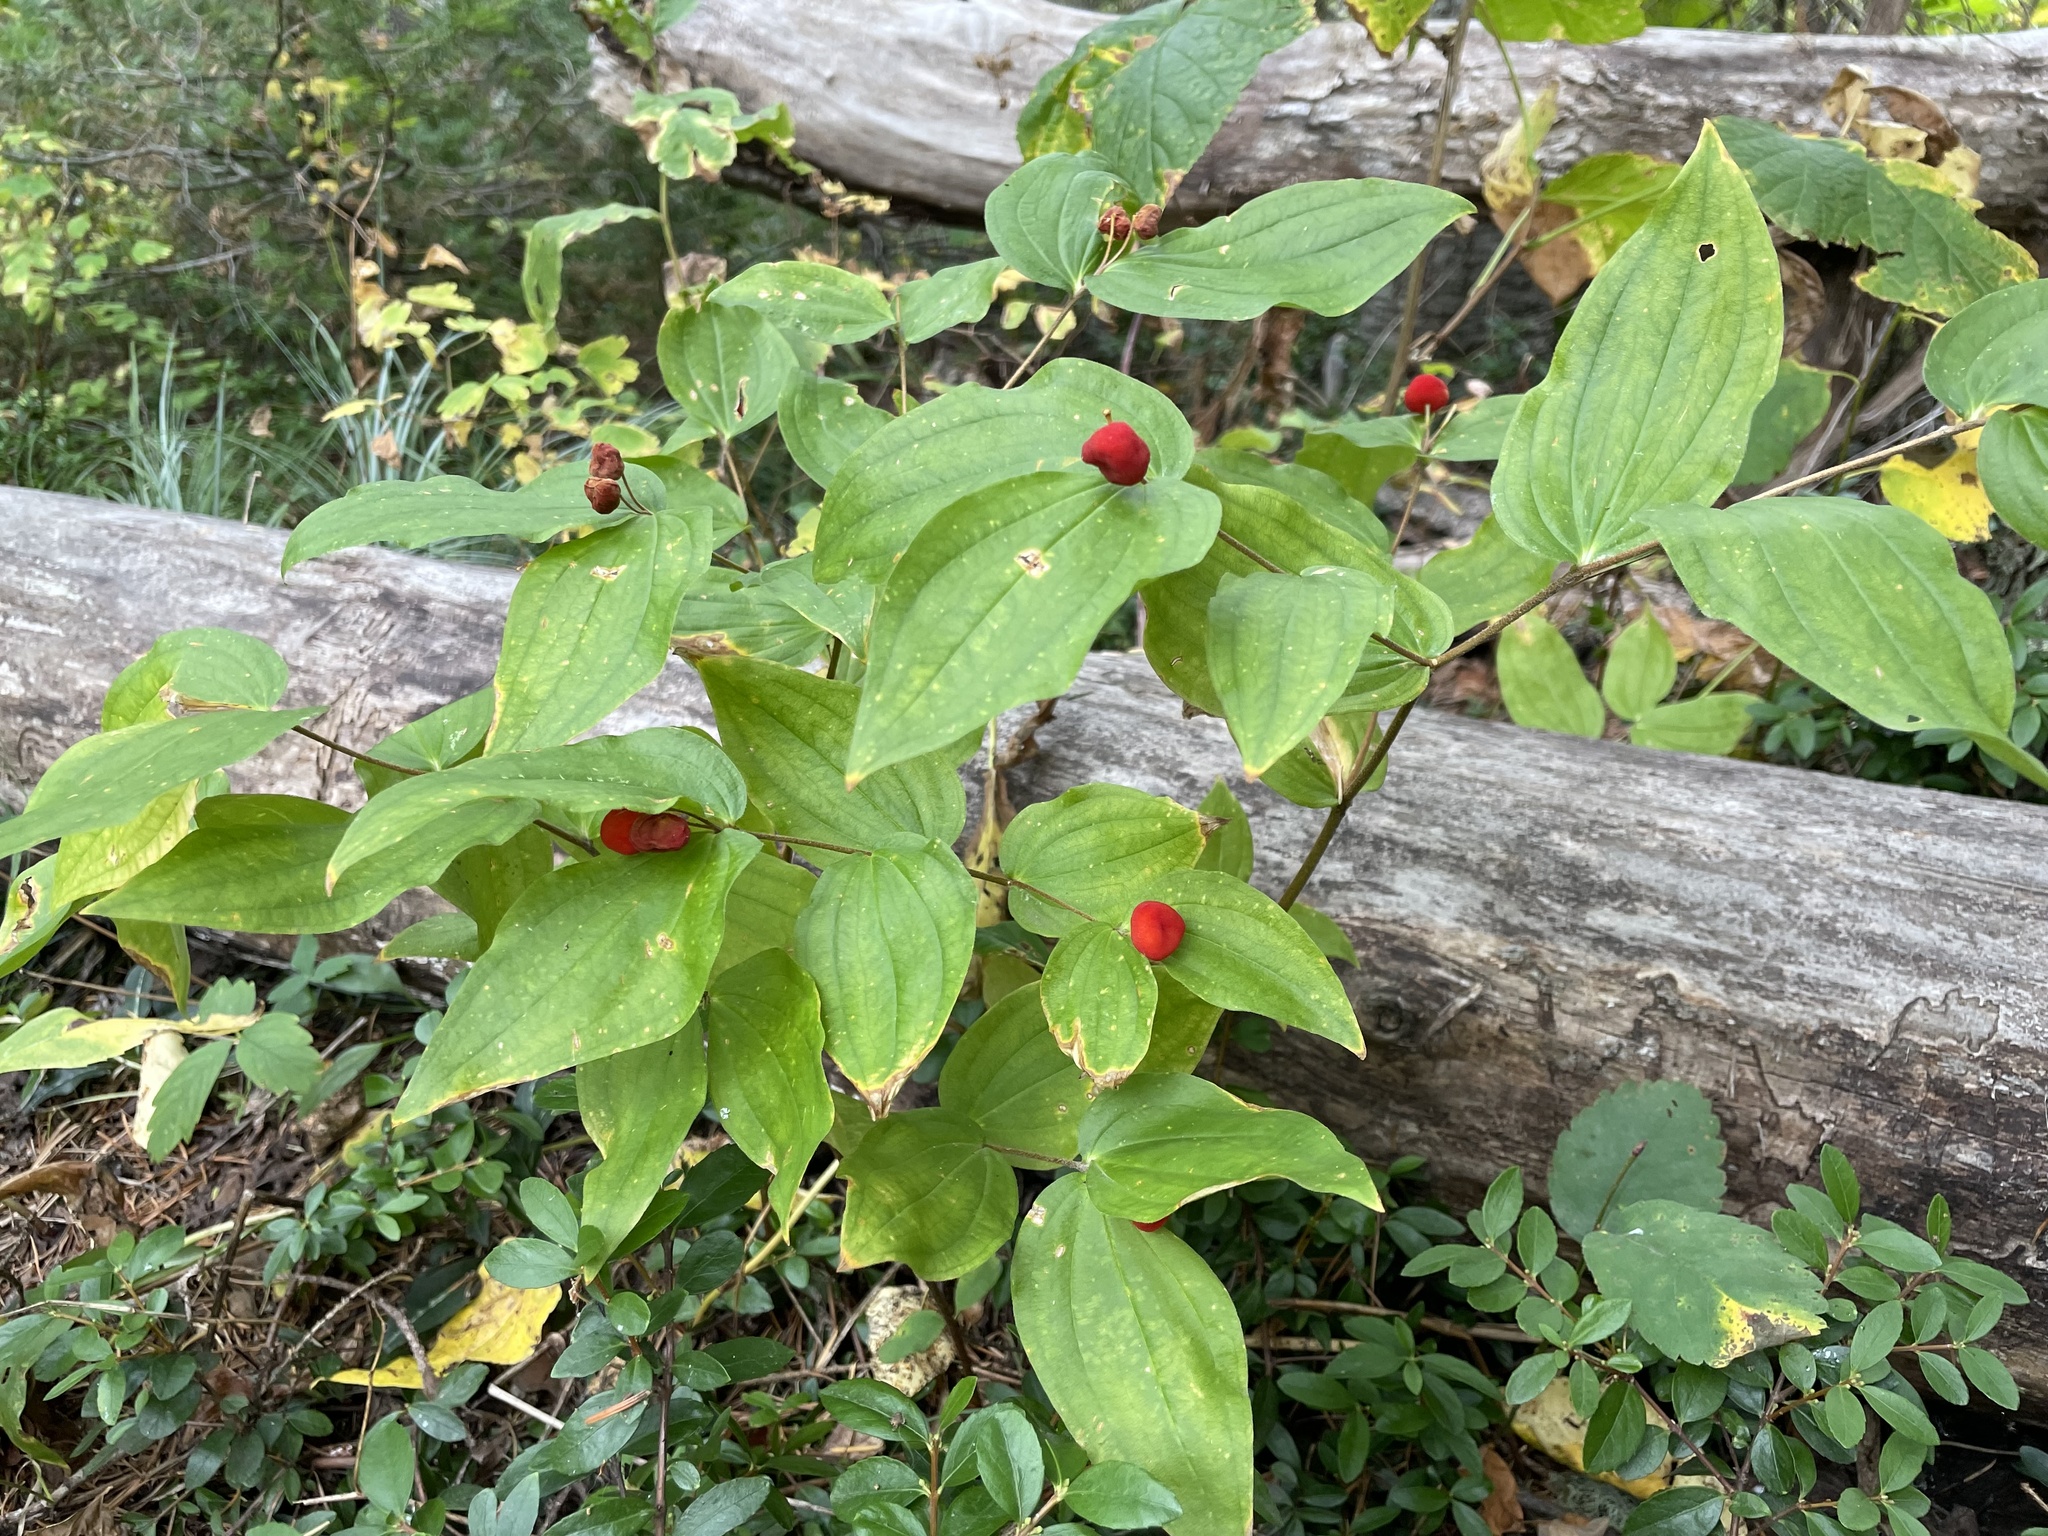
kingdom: Plantae
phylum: Tracheophyta
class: Liliopsida
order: Liliales
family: Liliaceae
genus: Prosartes
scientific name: Prosartes trachycarpa
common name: Rough-fruit fairy-bells
